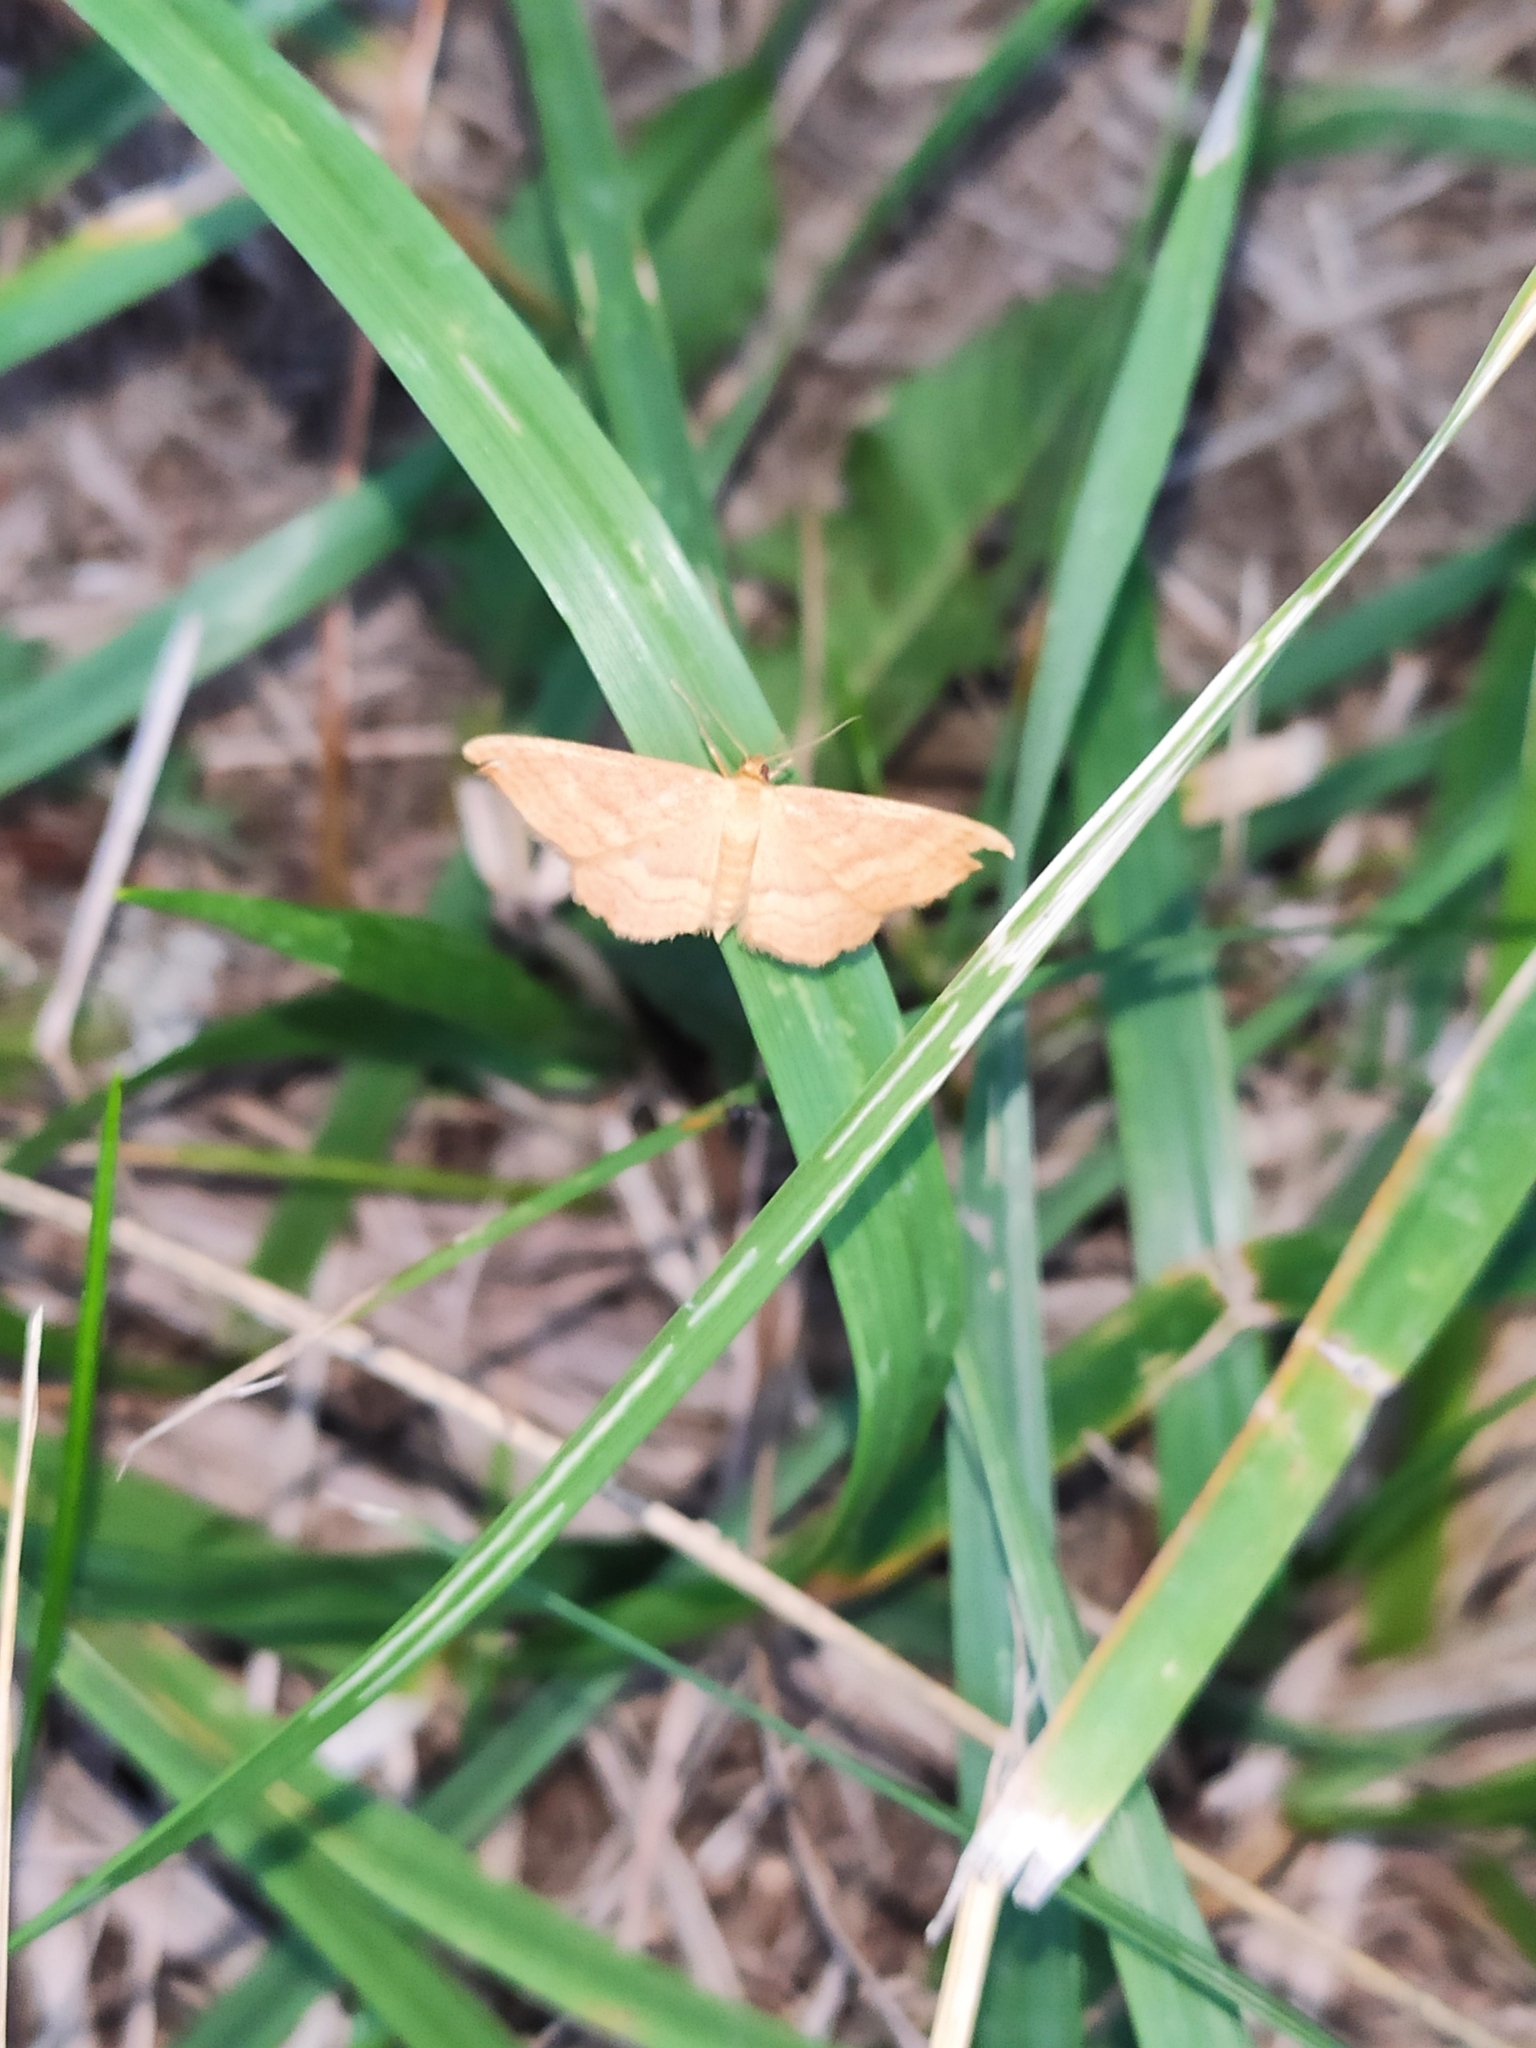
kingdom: Animalia
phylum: Arthropoda
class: Insecta
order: Lepidoptera
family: Geometridae
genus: Idaea
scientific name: Idaea rufaria
